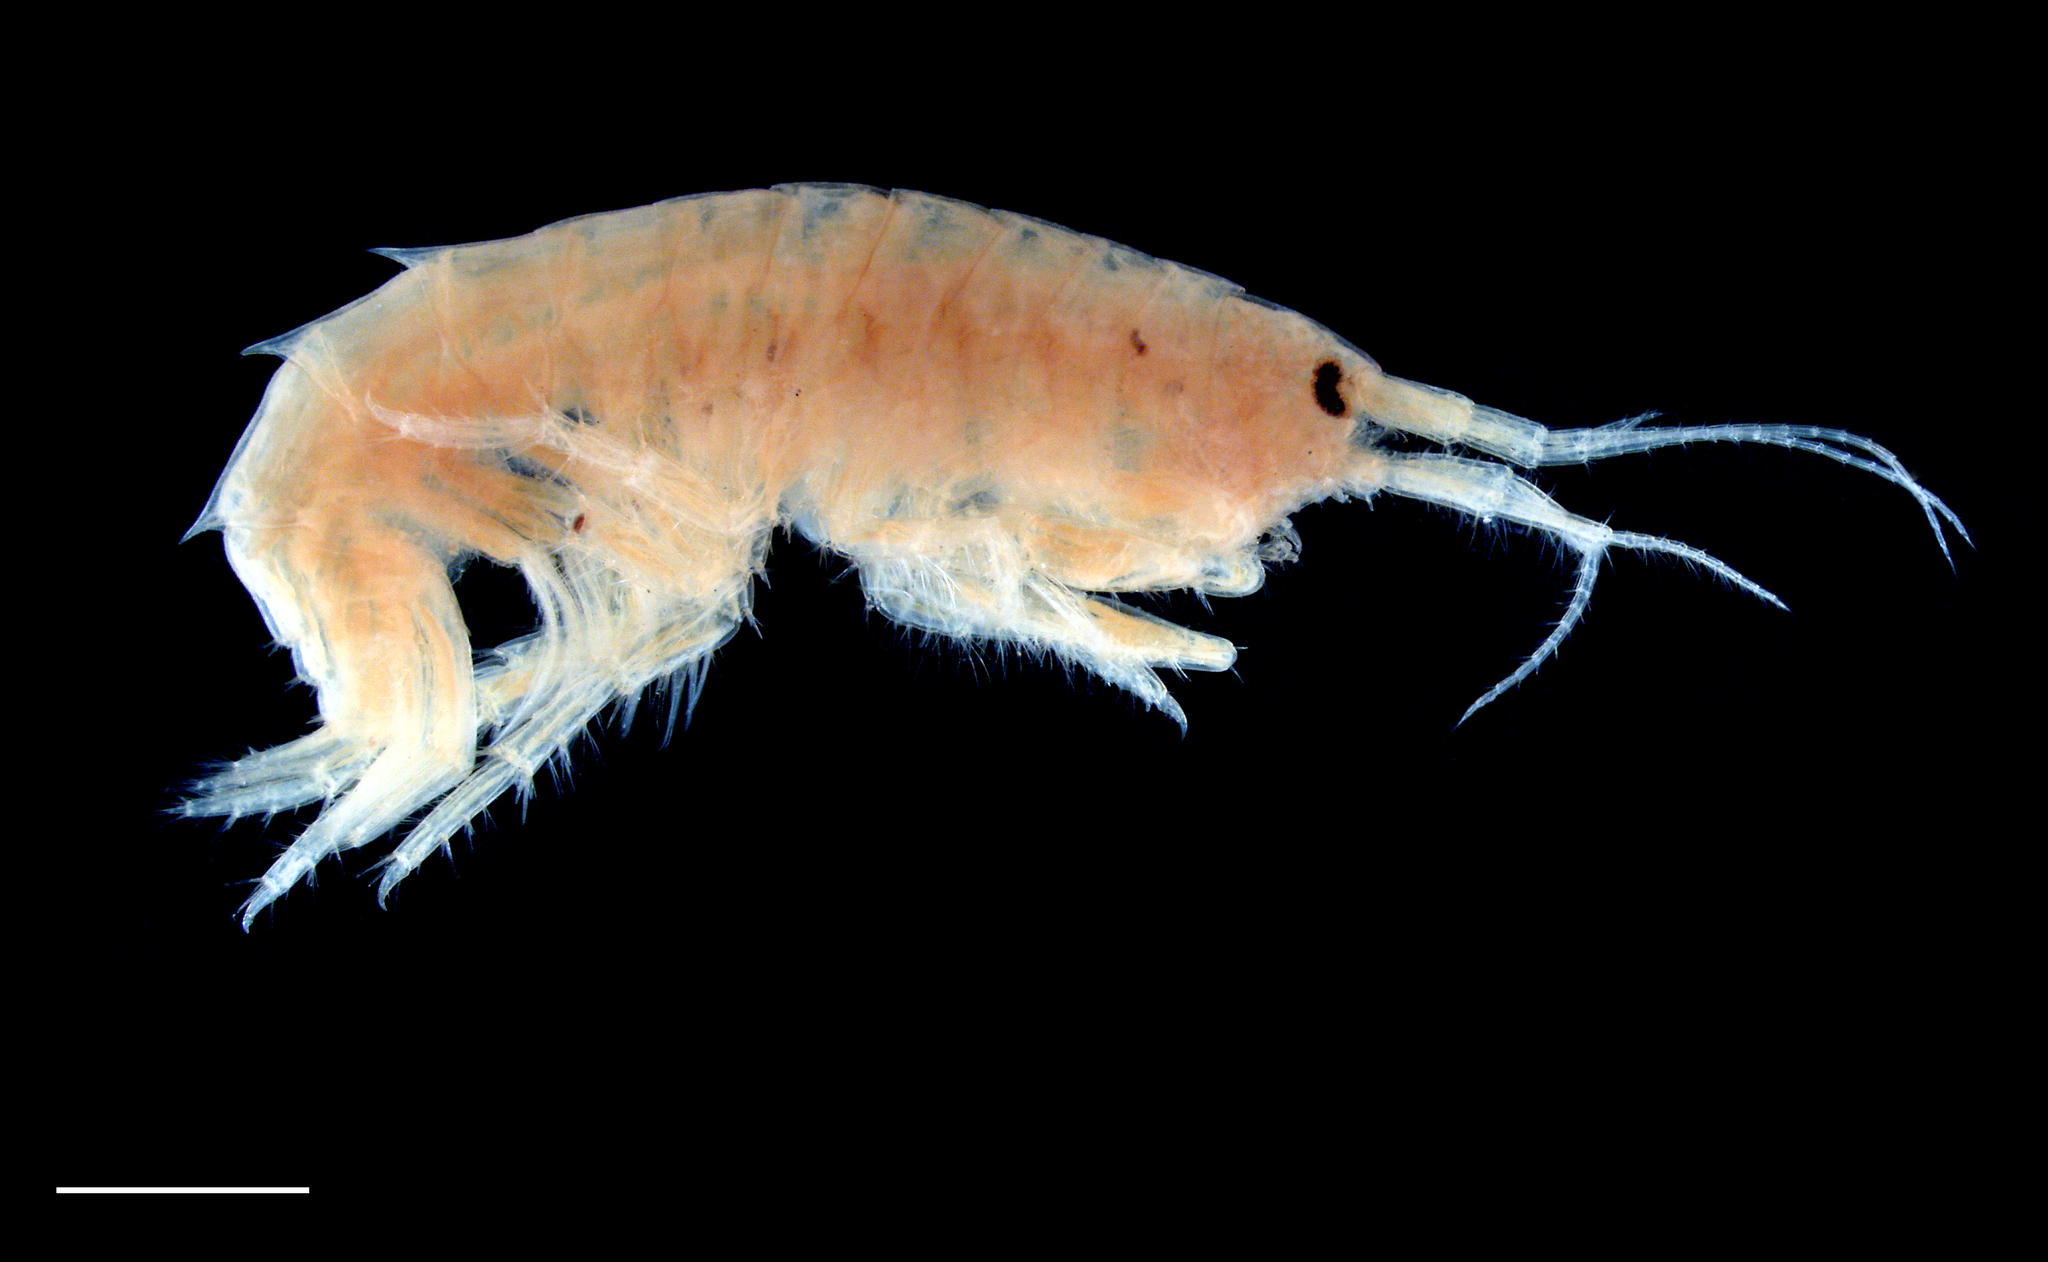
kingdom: Animalia
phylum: Arthropoda
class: Malacostraca
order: Amphipoda
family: Gammaridae
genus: Gammarus
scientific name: Gammarus lecroyae
